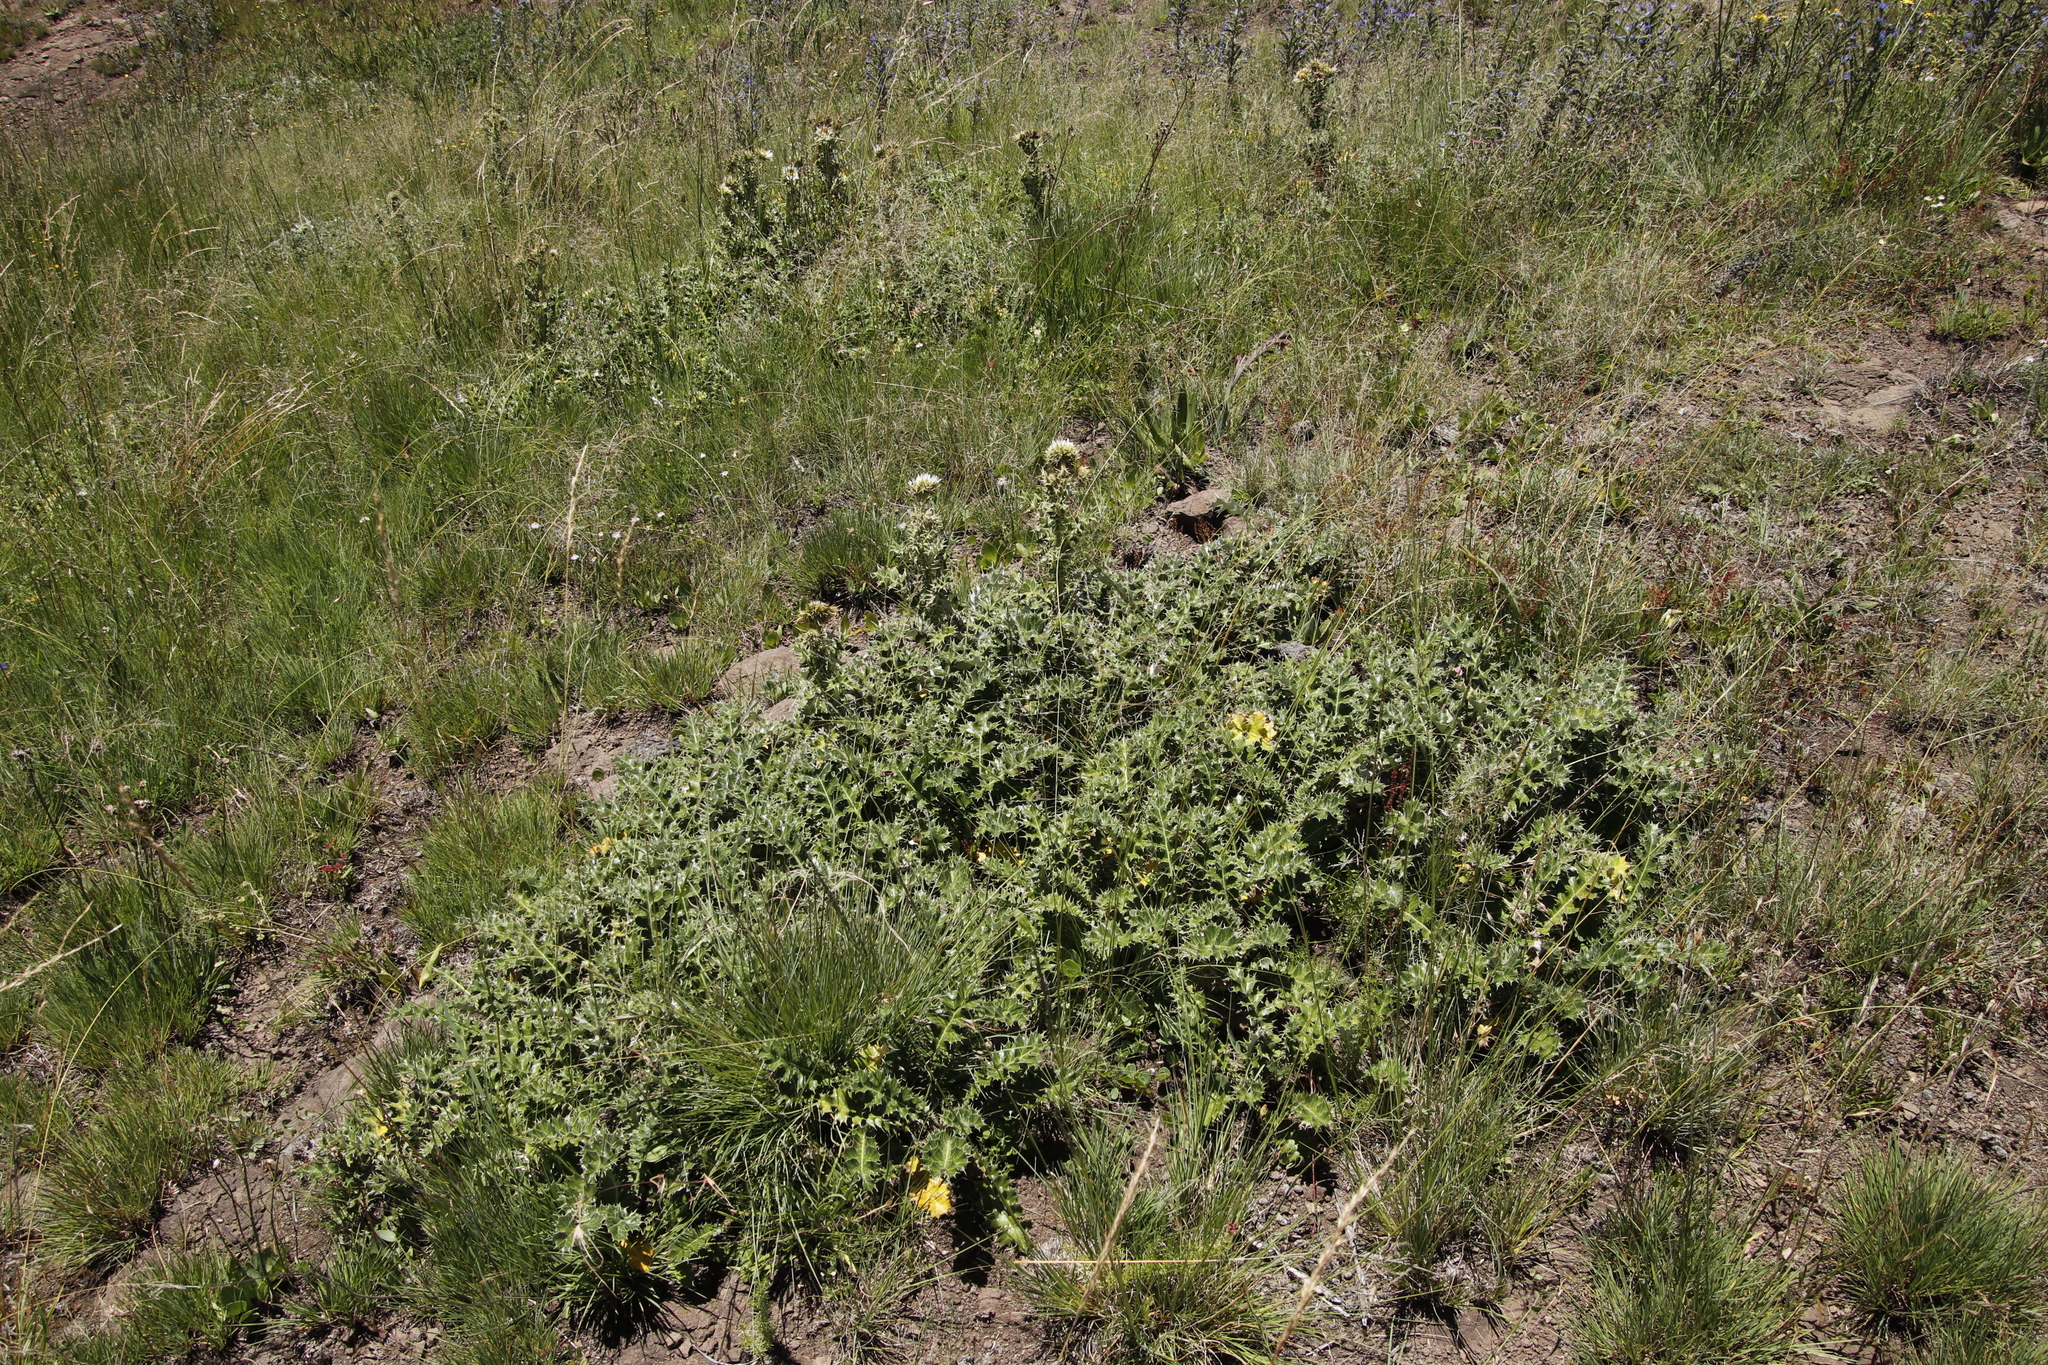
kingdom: Plantae
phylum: Tracheophyta
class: Magnoliopsida
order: Asterales
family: Asteraceae
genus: Berkheya
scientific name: Berkheya cirsiifolia
